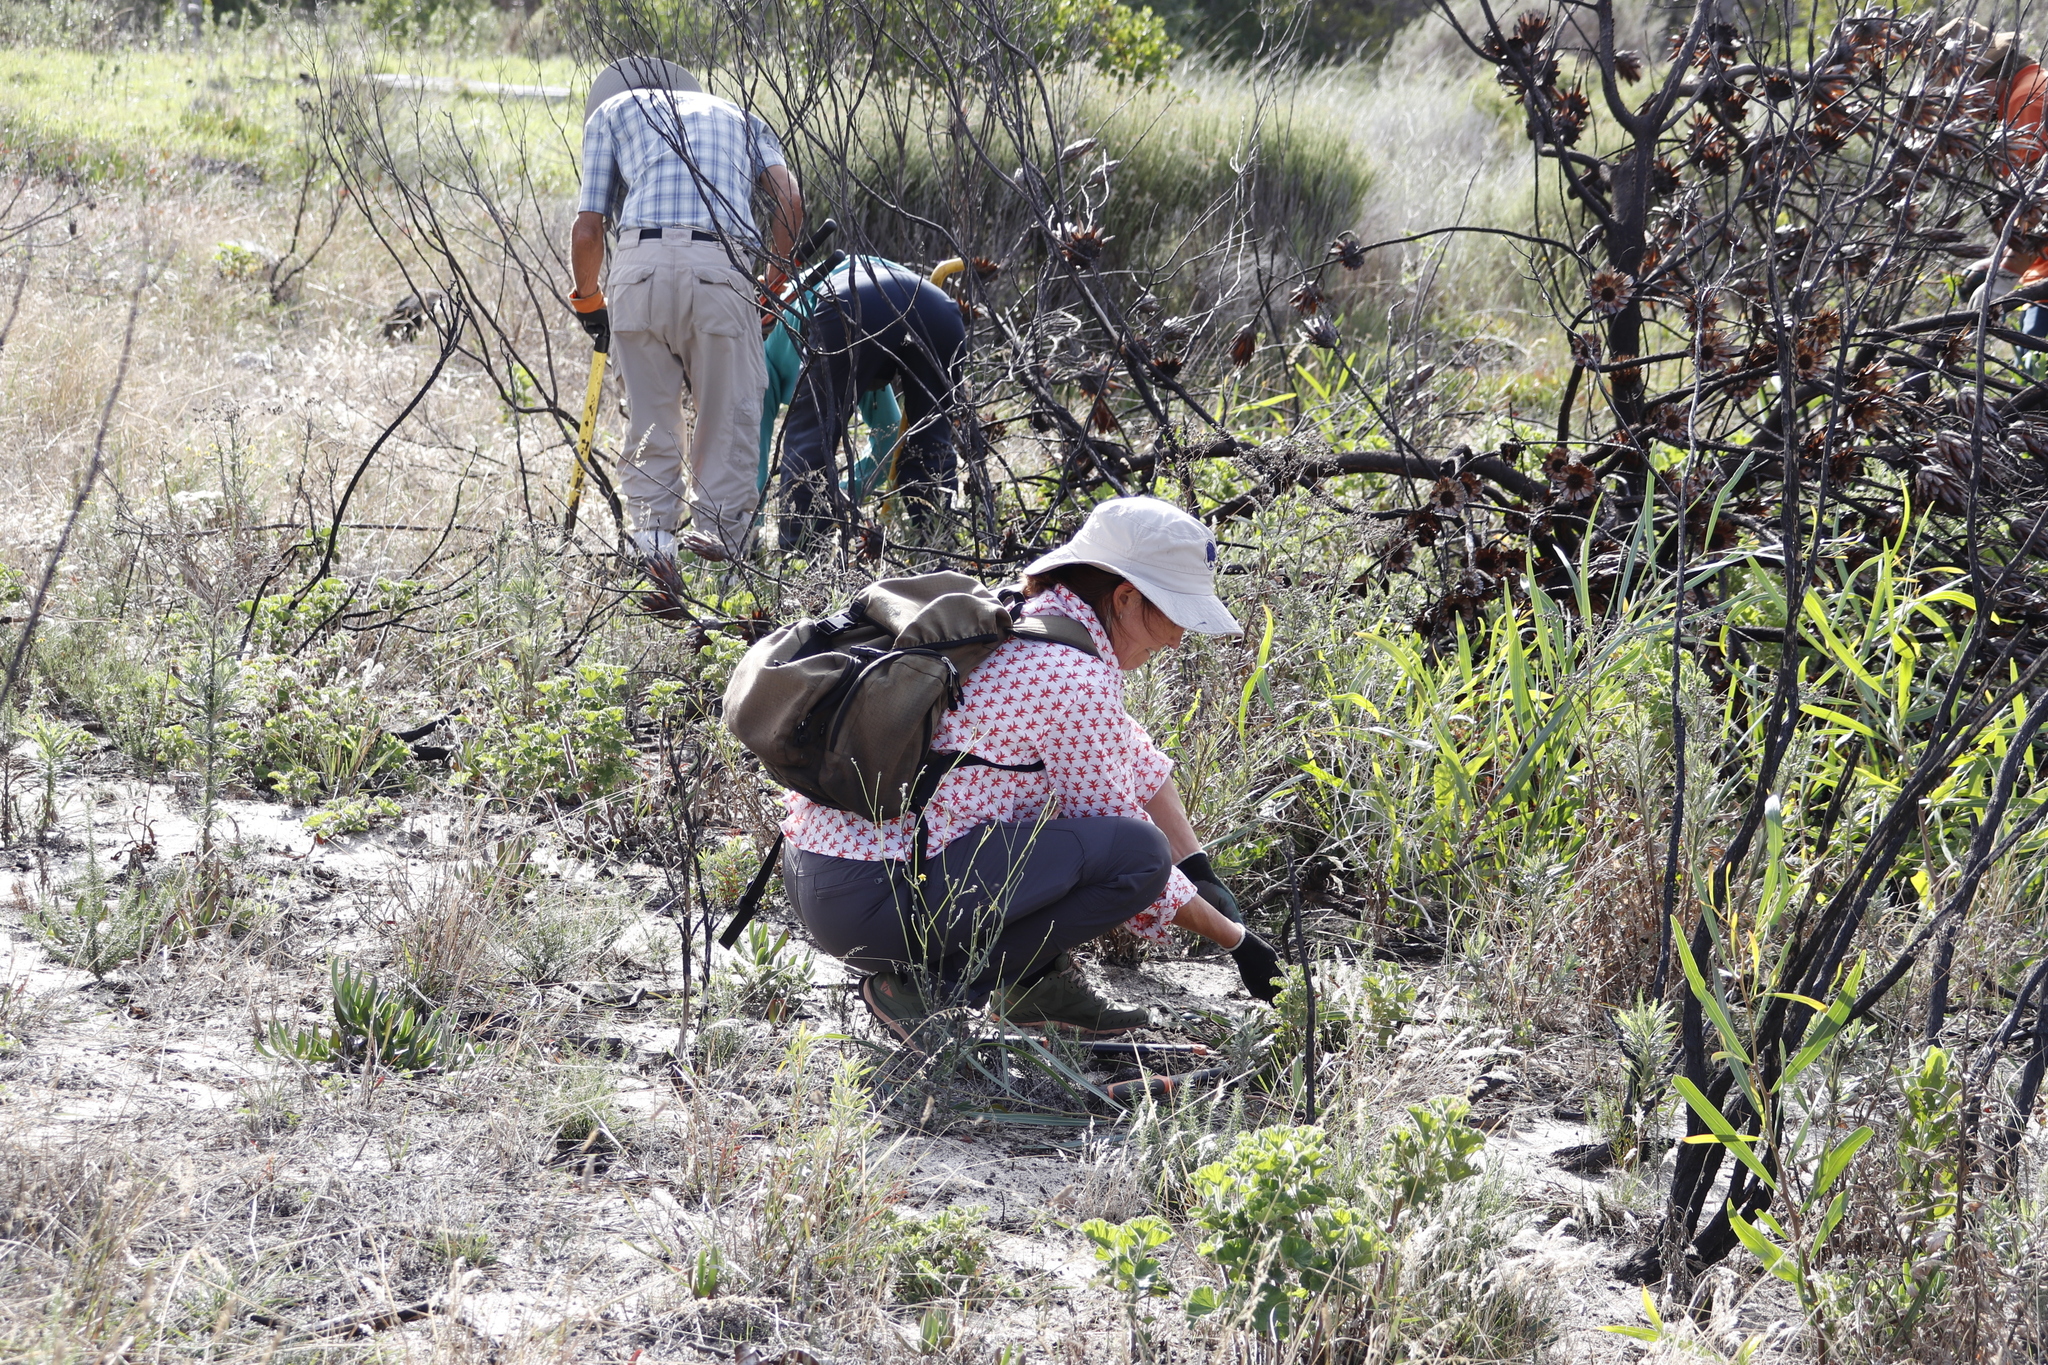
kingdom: Plantae
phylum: Tracheophyta
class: Magnoliopsida
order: Fabales
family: Fabaceae
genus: Acacia
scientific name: Acacia saligna
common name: Orange wattle
